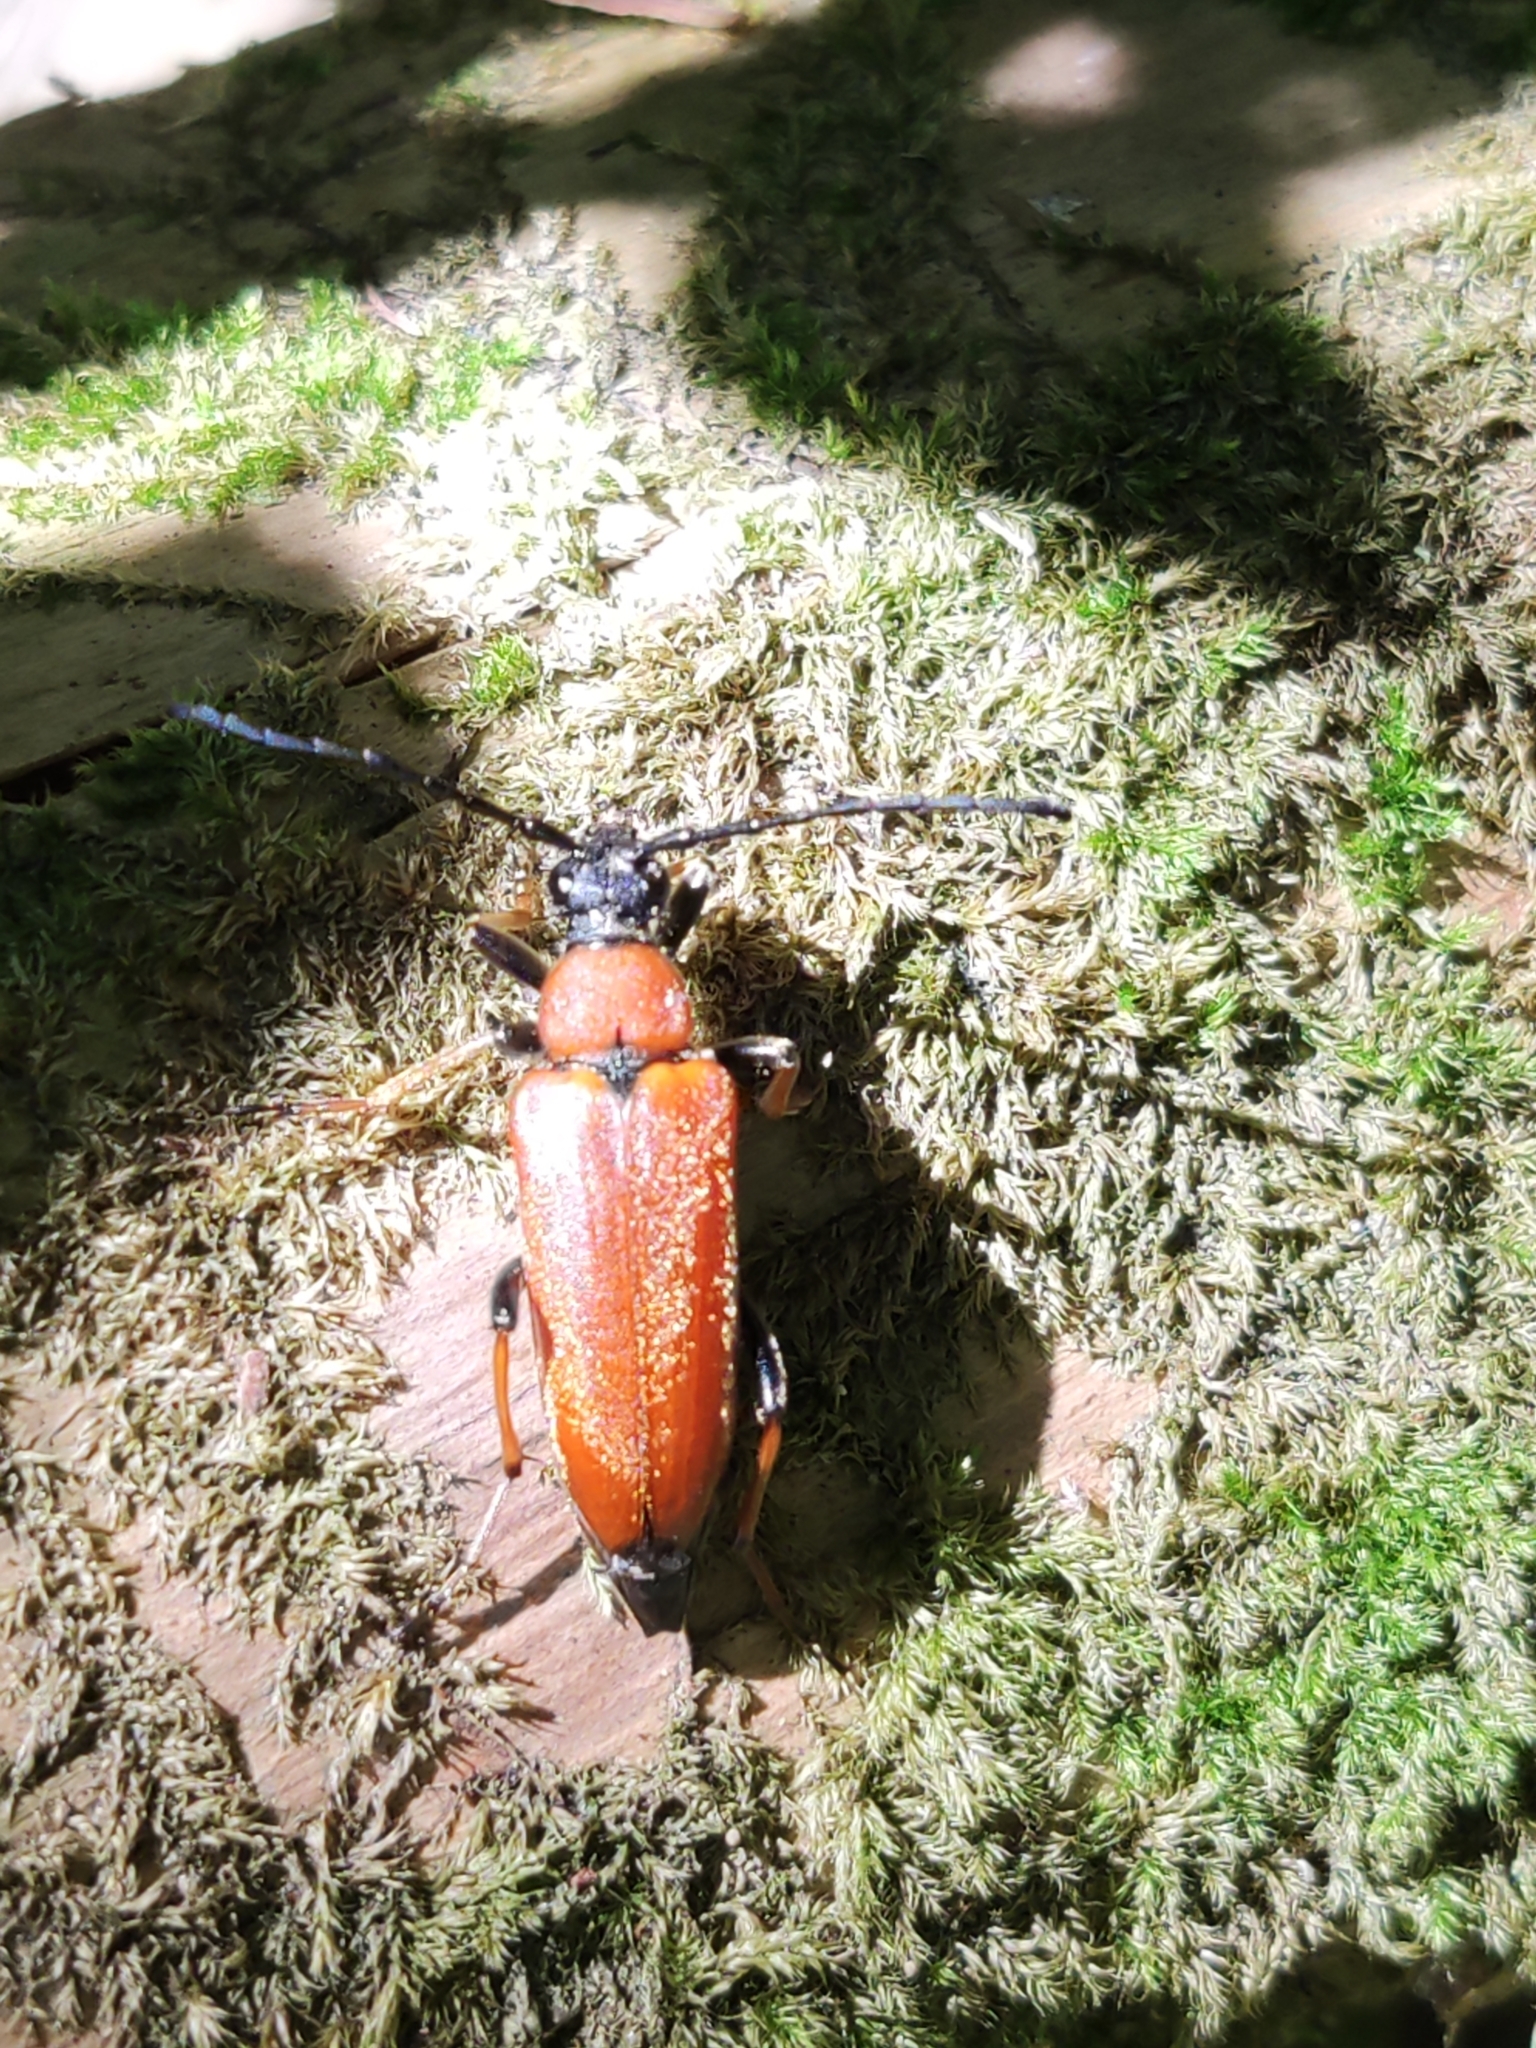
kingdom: Animalia
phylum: Arthropoda
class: Insecta
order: Coleoptera
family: Cerambycidae
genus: Stictoleptura
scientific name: Stictoleptura rubra
